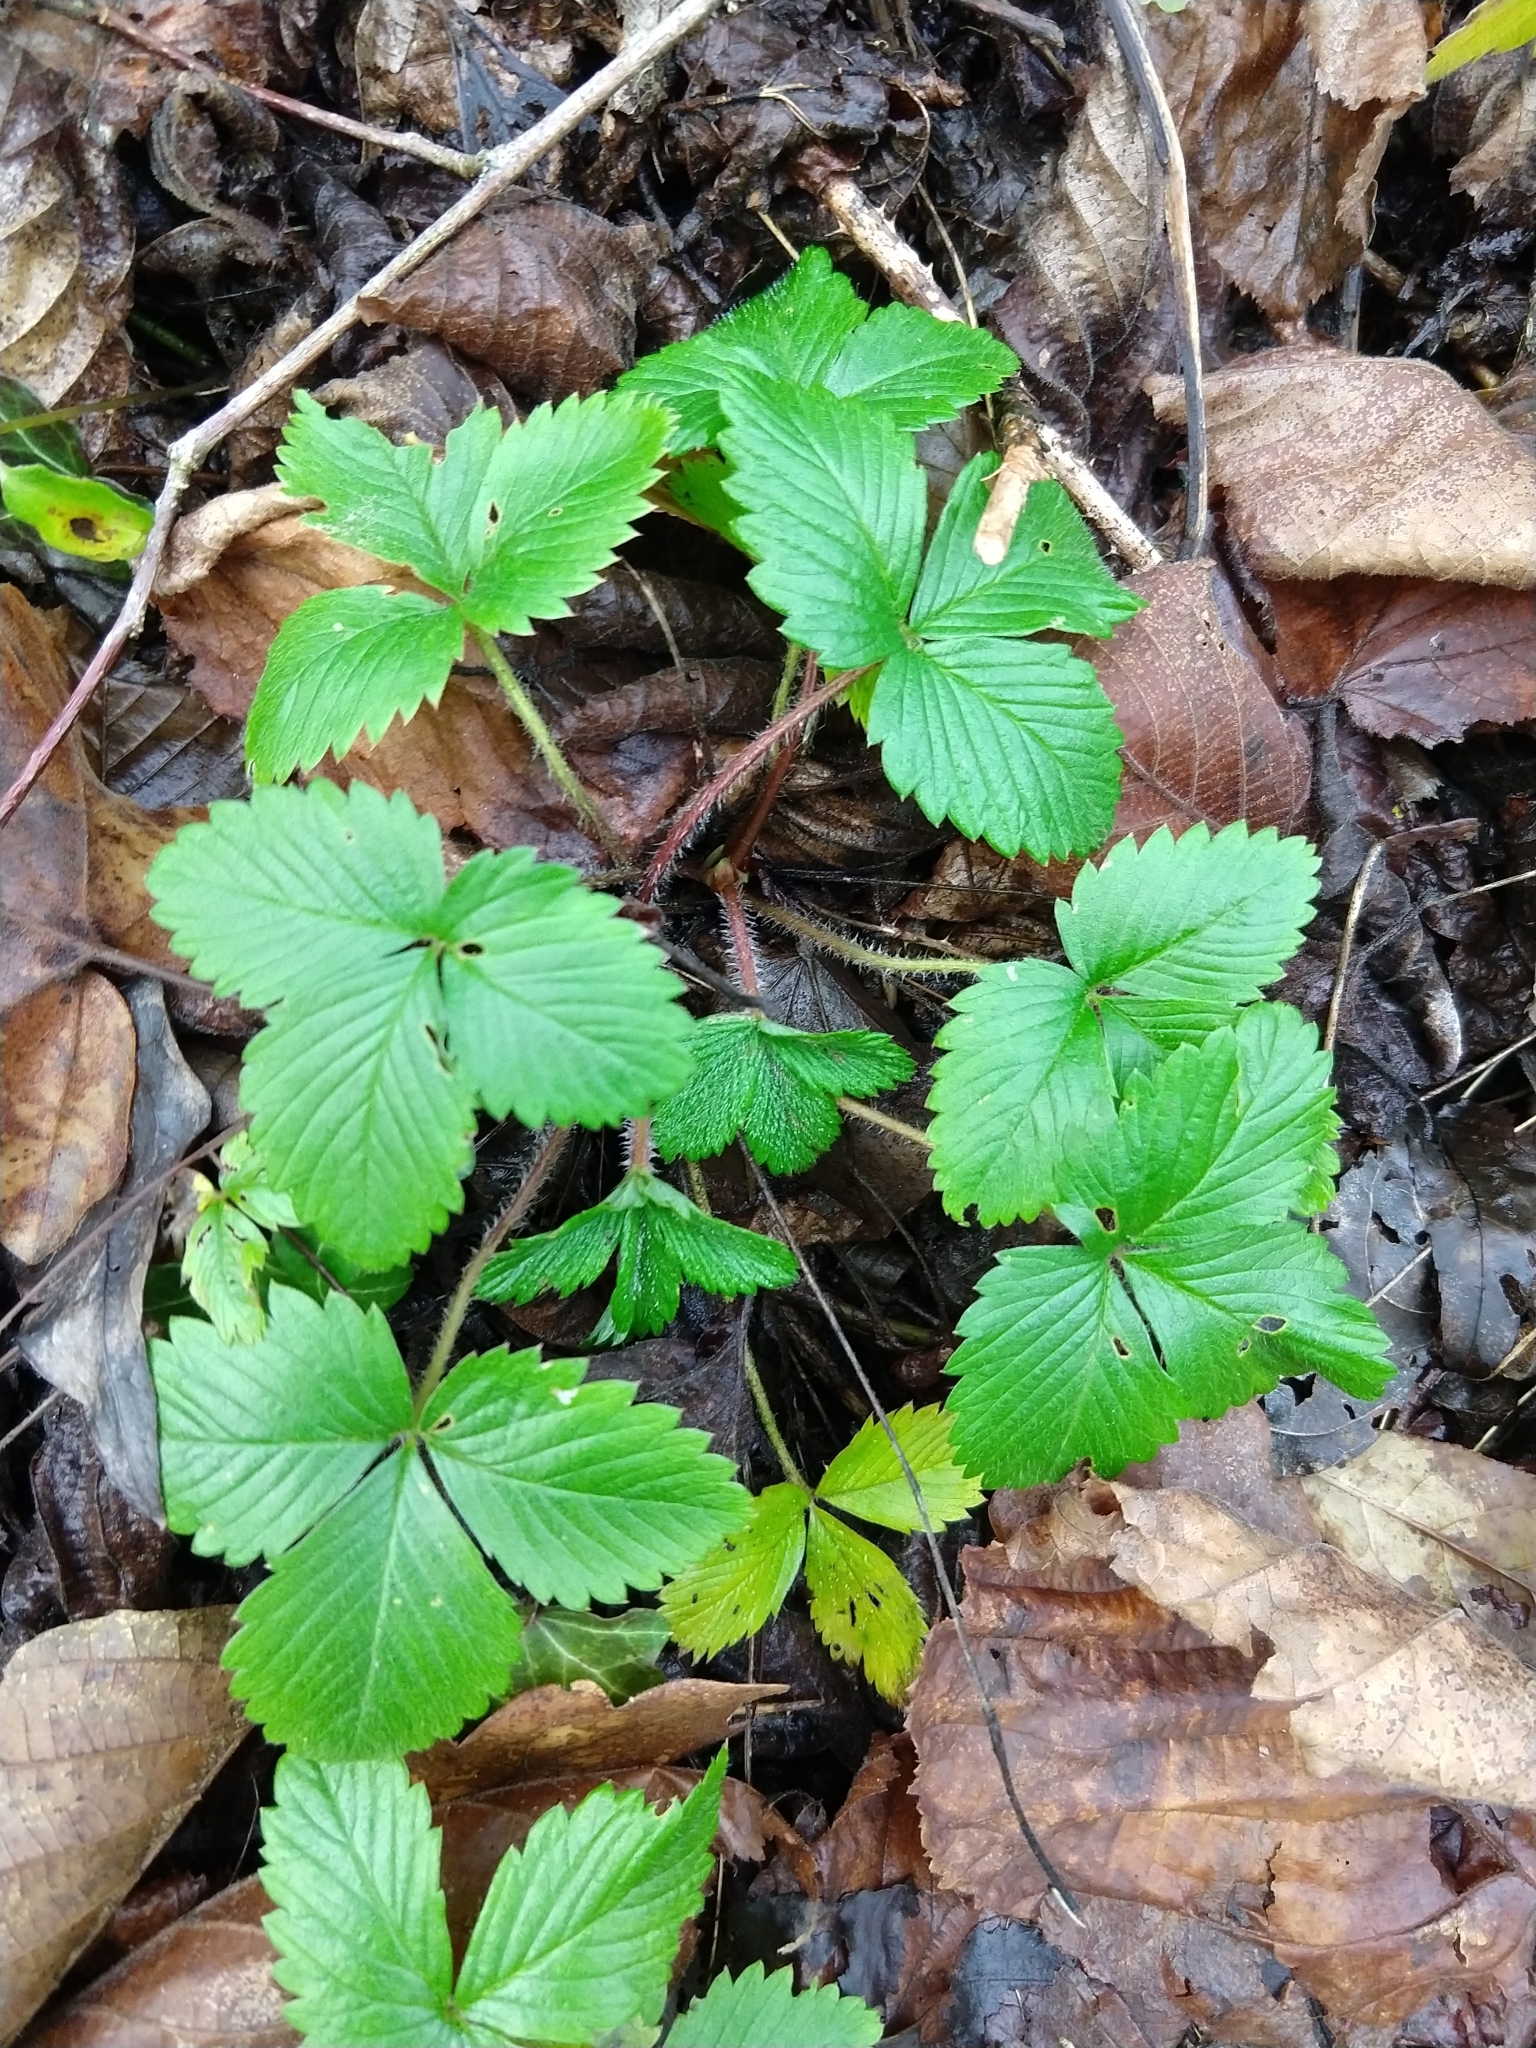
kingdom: Plantae
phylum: Tracheophyta
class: Magnoliopsida
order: Rosales
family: Rosaceae
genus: Fragaria
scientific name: Fragaria vesca
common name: Wild strawberry
